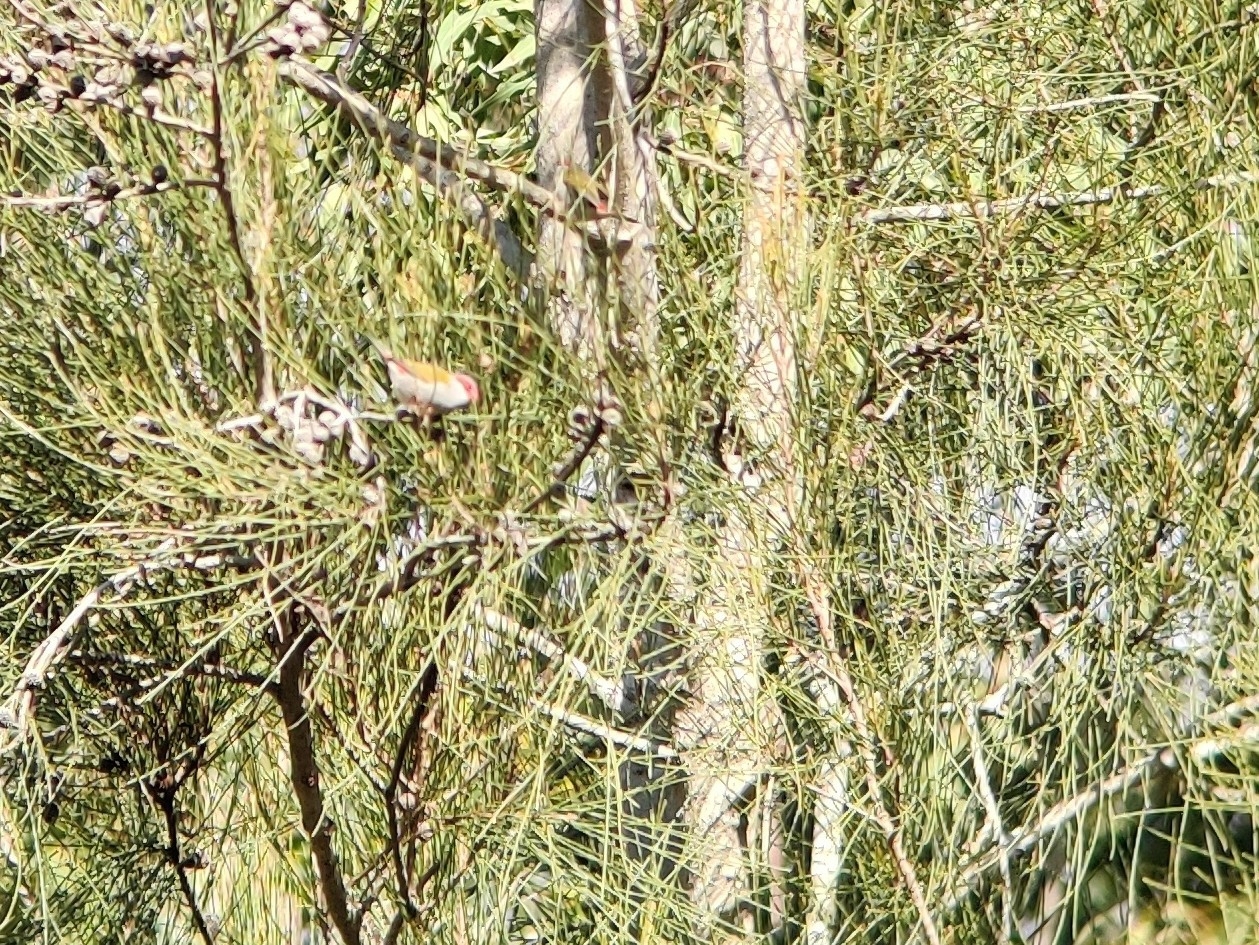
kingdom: Animalia
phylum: Chordata
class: Aves
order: Passeriformes
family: Estrildidae
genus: Neochmia
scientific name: Neochmia temporalis
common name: Red-browed finch
